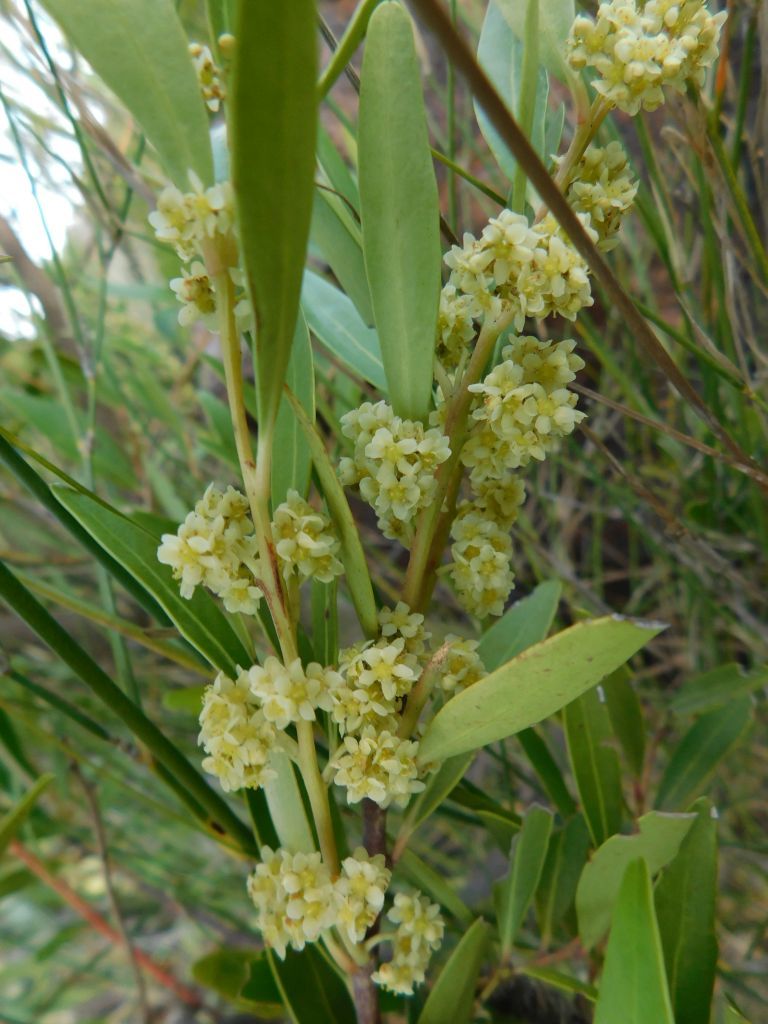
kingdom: Plantae
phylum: Tracheophyta
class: Magnoliopsida
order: Celastrales
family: Celastraceae
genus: Gymnosporia
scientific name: Gymnosporia laurina
